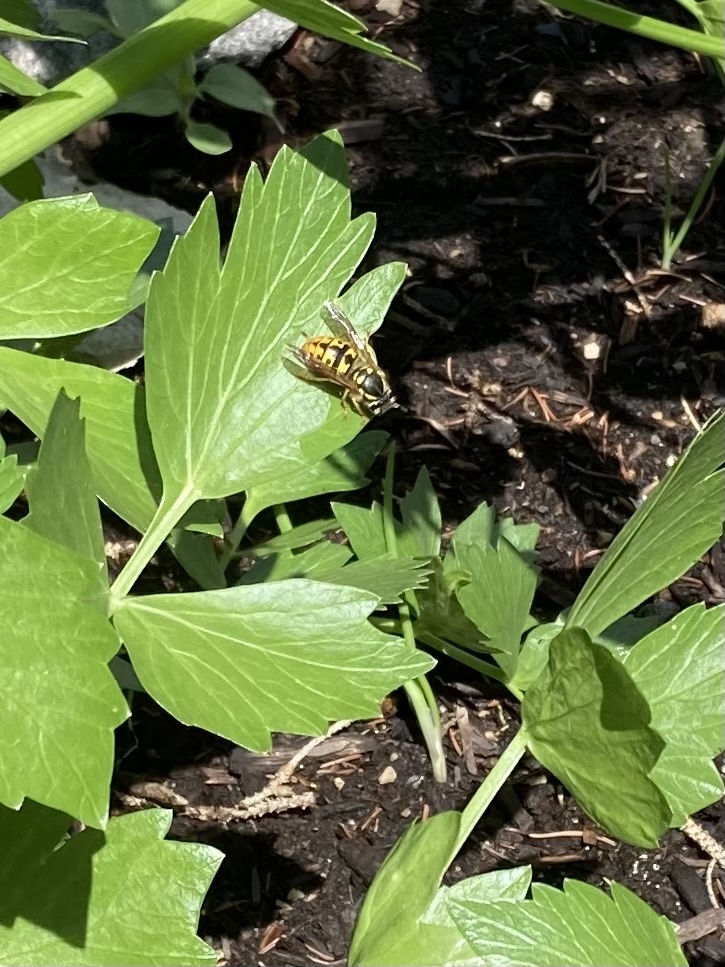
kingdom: Animalia
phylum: Arthropoda
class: Insecta
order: Hymenoptera
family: Vespidae
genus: Vespula
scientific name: Vespula germanica
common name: German wasp
